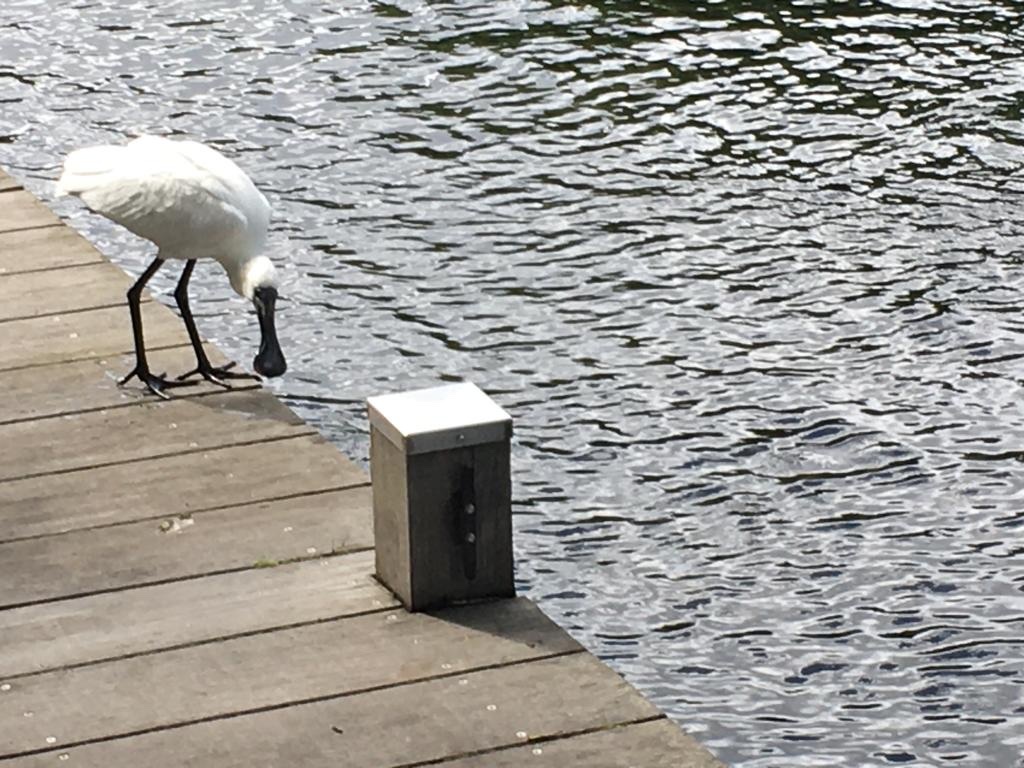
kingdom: Animalia
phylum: Chordata
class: Aves
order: Pelecaniformes
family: Threskiornithidae
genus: Platalea
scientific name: Platalea regia
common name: Royal spoonbill
